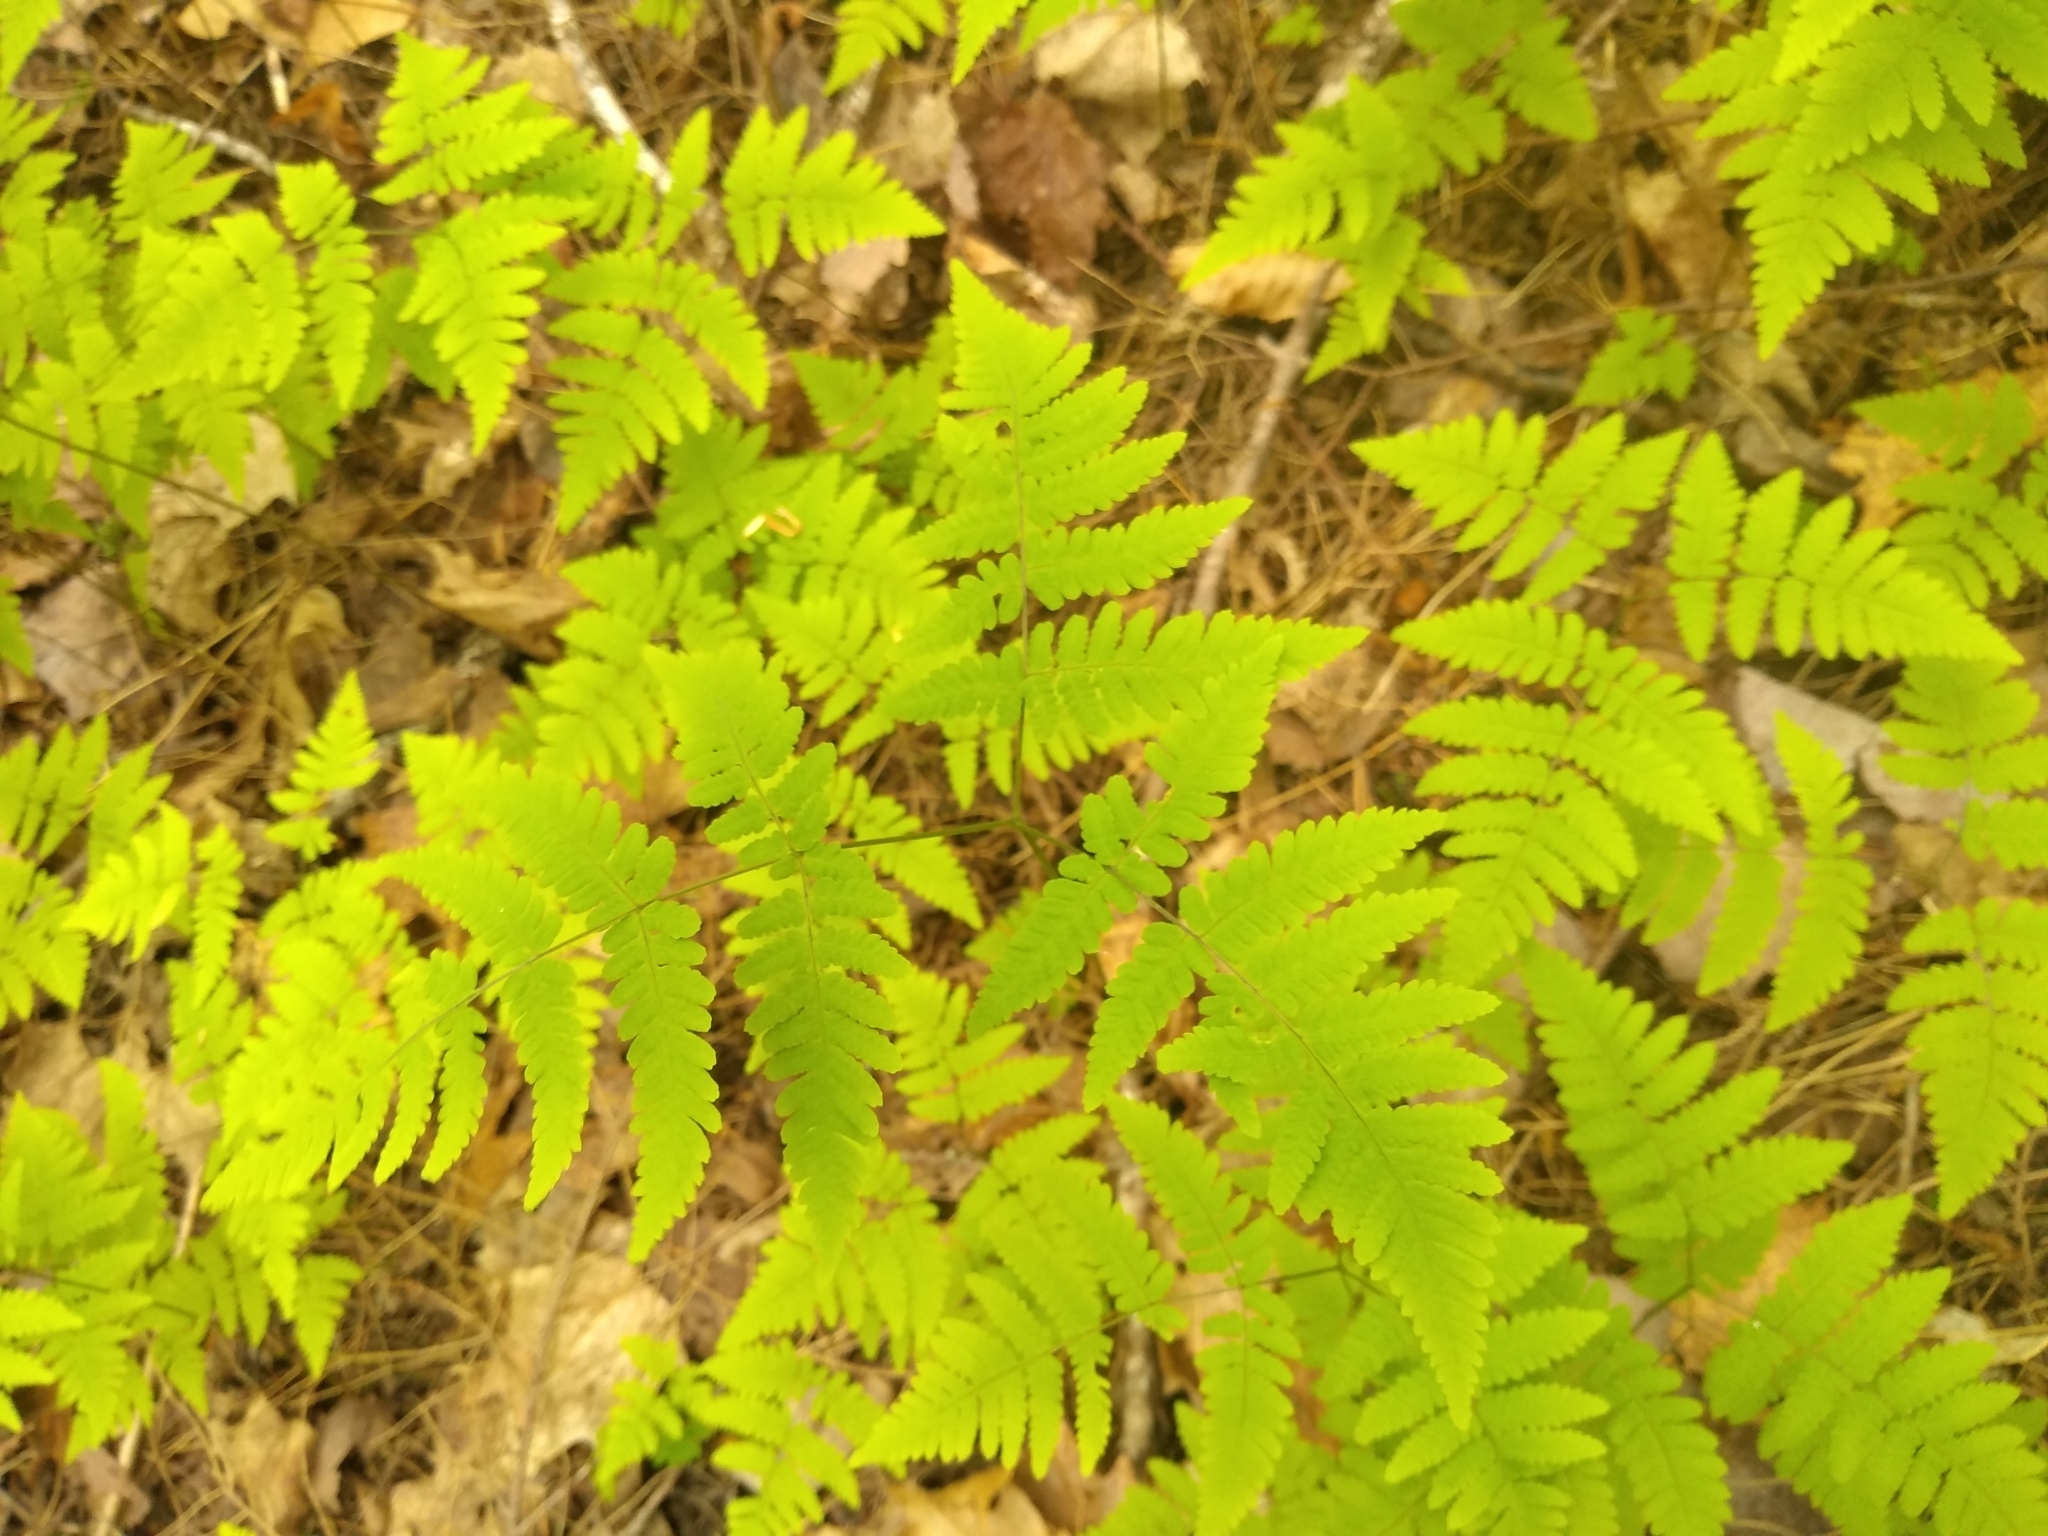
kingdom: Plantae
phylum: Tracheophyta
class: Polypodiopsida
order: Polypodiales
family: Cystopteridaceae
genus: Gymnocarpium
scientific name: Gymnocarpium dryopteris
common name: Oak fern
